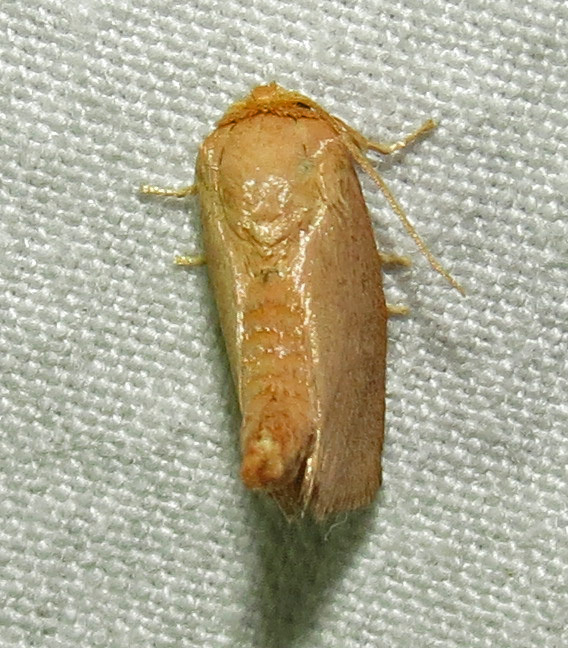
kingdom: Animalia
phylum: Arthropoda
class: Insecta
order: Lepidoptera
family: Limacodidae
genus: Tortricidia
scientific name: Tortricidia pallida
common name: Red-crossed button slug moth
